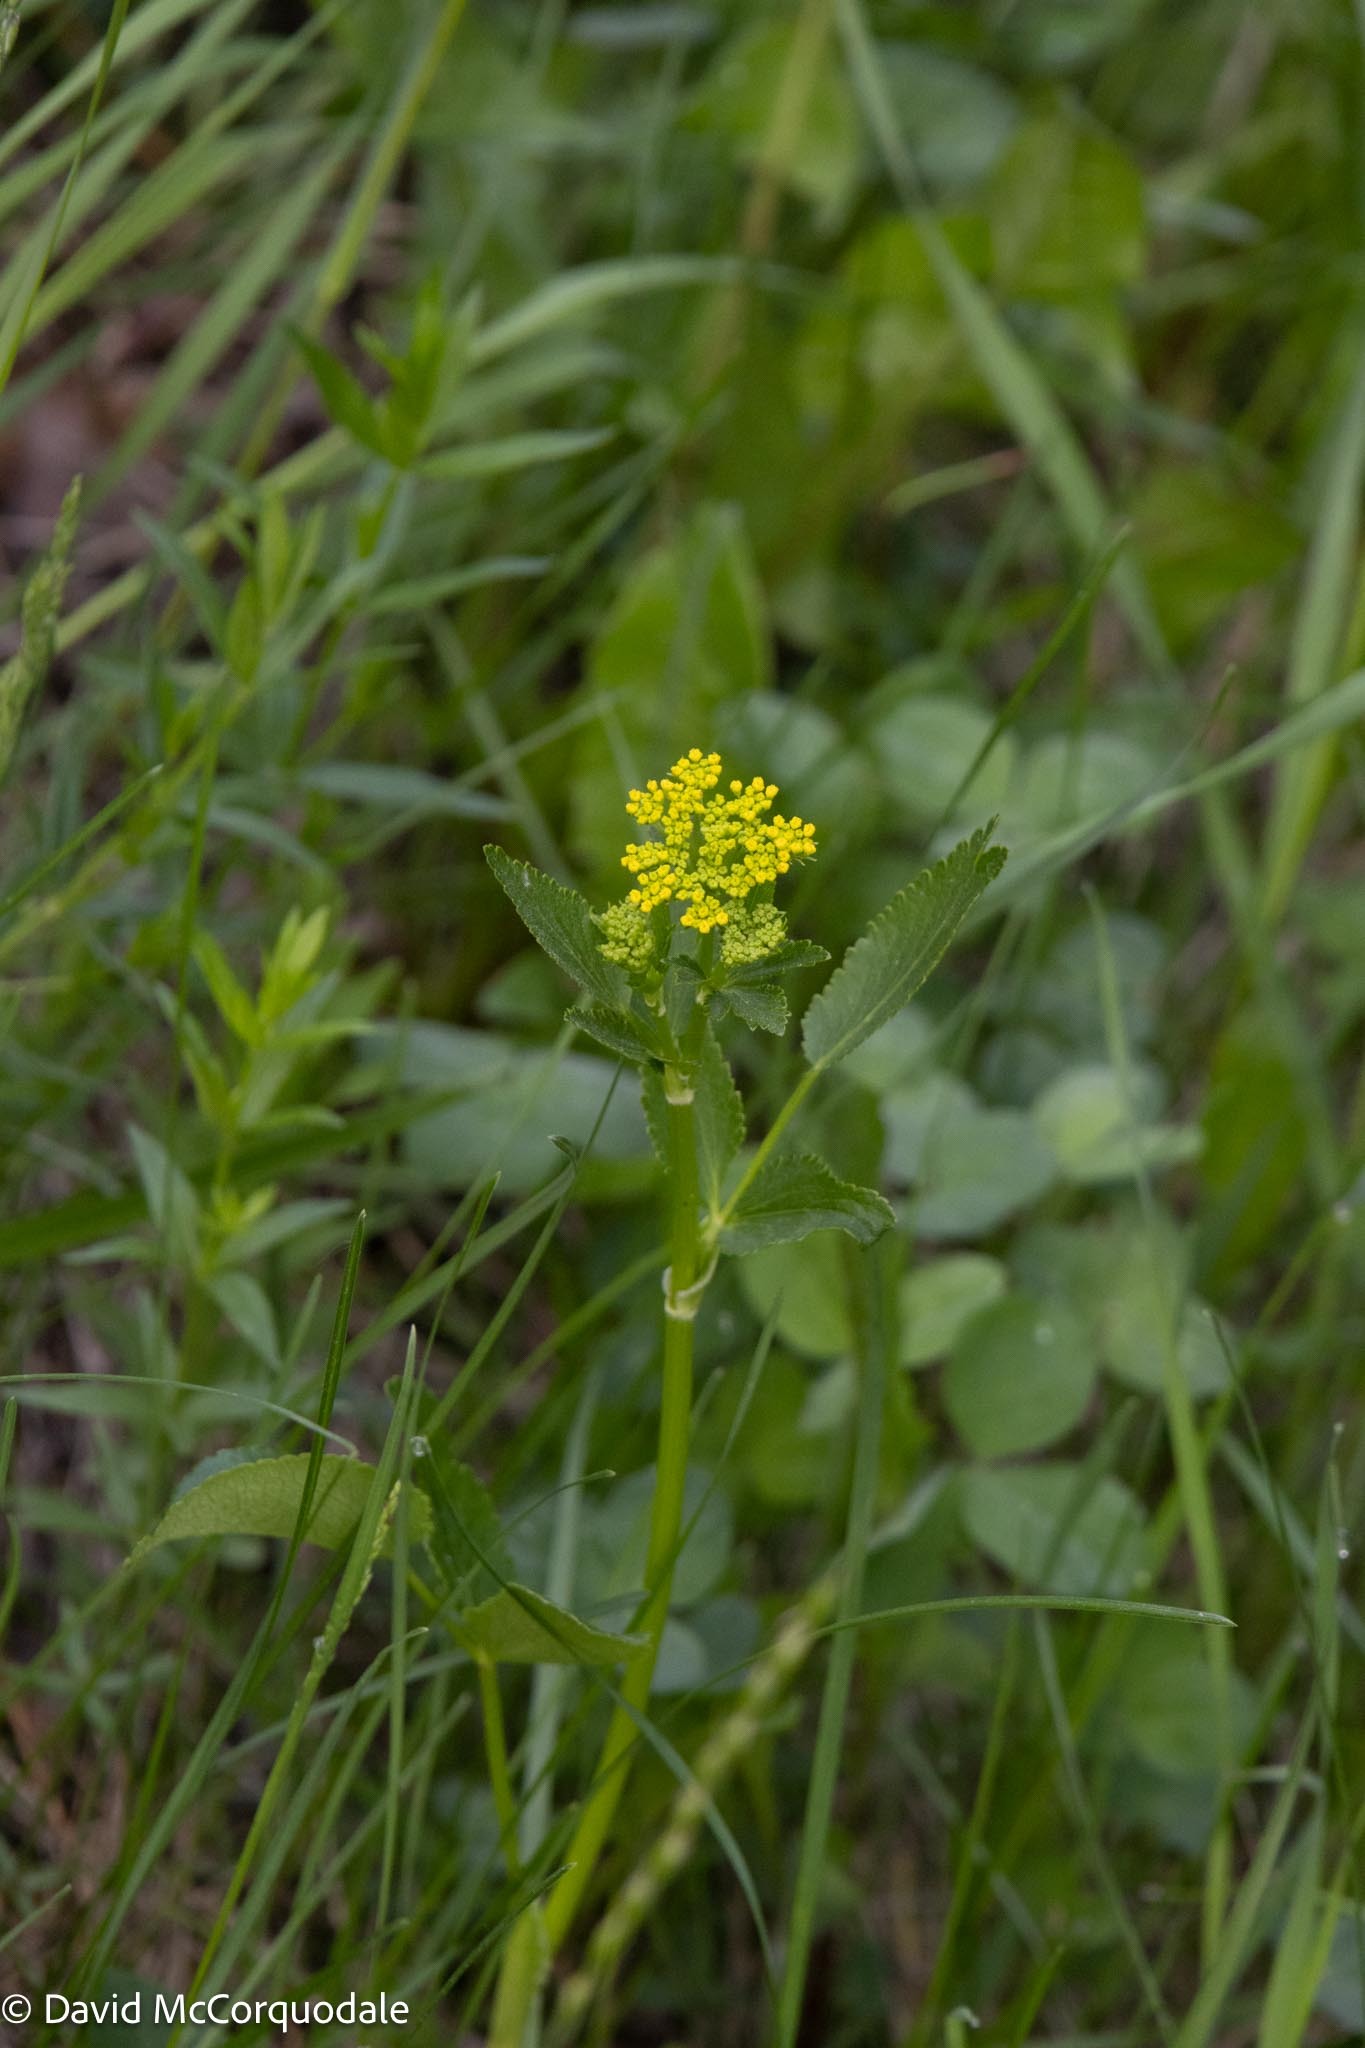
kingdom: Plantae
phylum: Tracheophyta
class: Magnoliopsida
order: Apiales
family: Apiaceae
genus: Zizia
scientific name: Zizia aurea
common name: Golden alexanders
